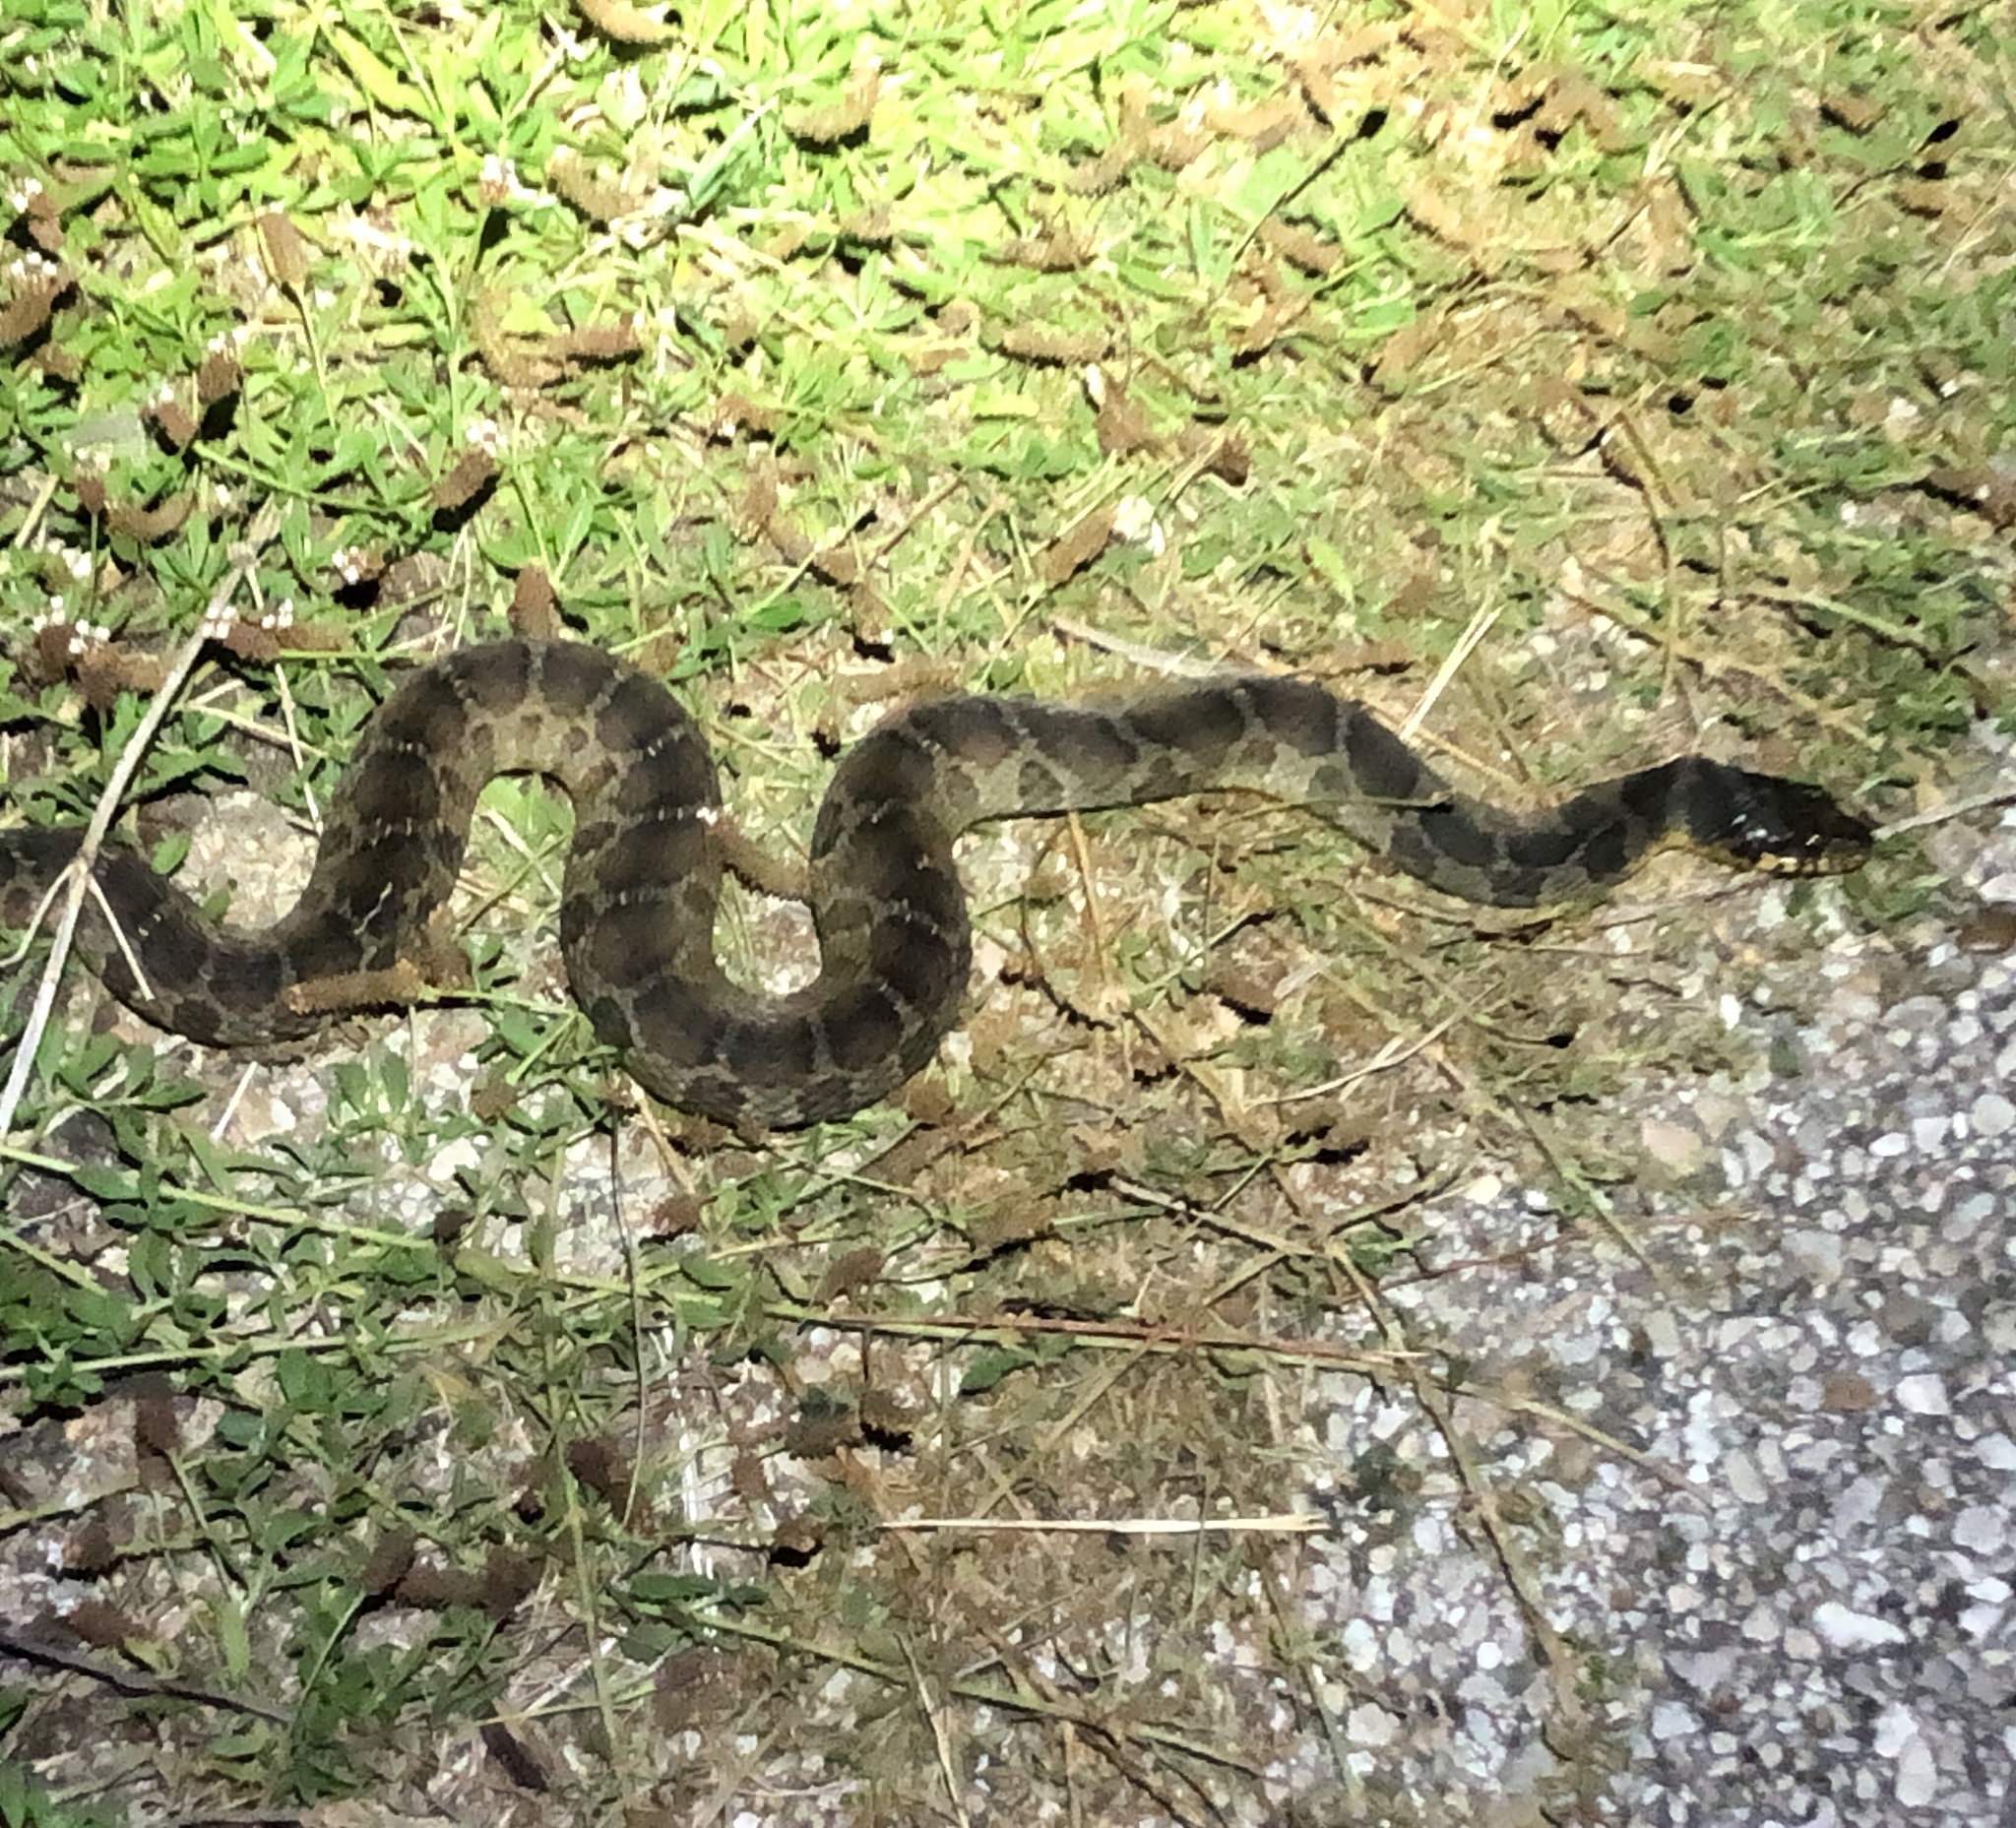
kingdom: Animalia
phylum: Chordata
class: Squamata
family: Colubridae
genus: Nerodia
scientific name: Nerodia erythrogaster
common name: Plainbelly water snake
